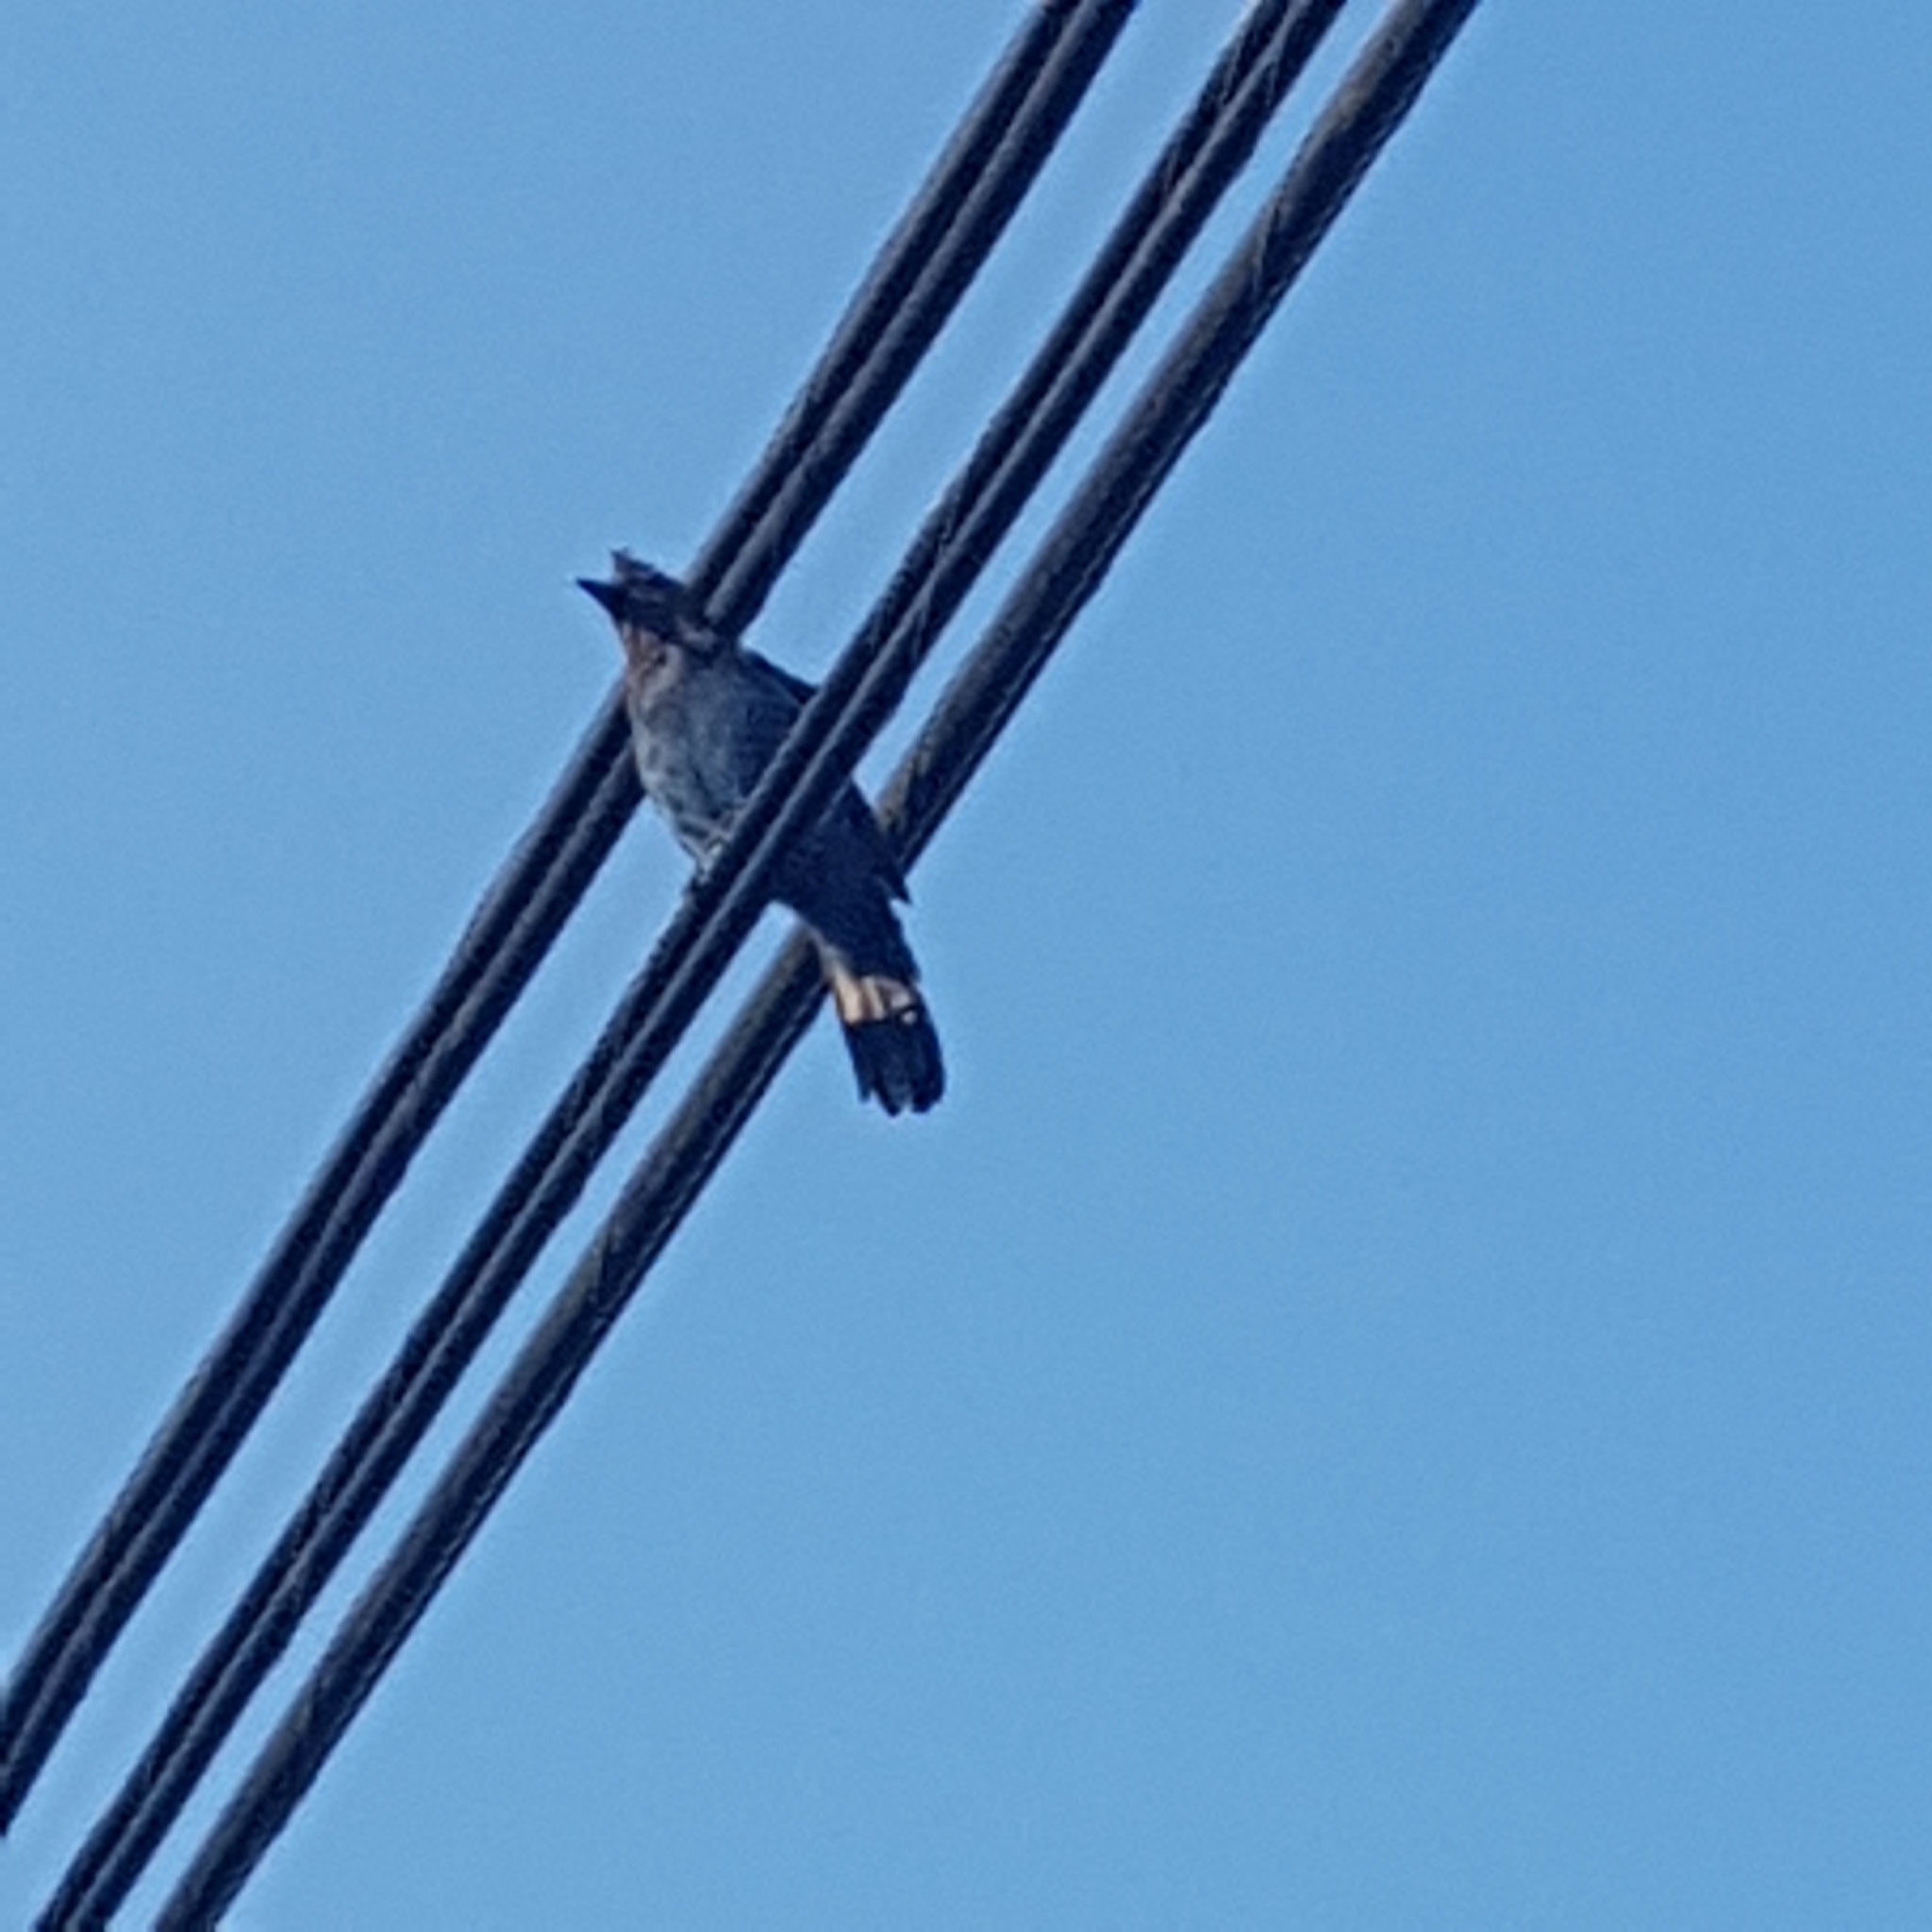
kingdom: Animalia
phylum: Chordata
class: Aves
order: Passeriformes
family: Corvidae
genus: Cyanocitta
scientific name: Cyanocitta stelleri
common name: Steller's jay
